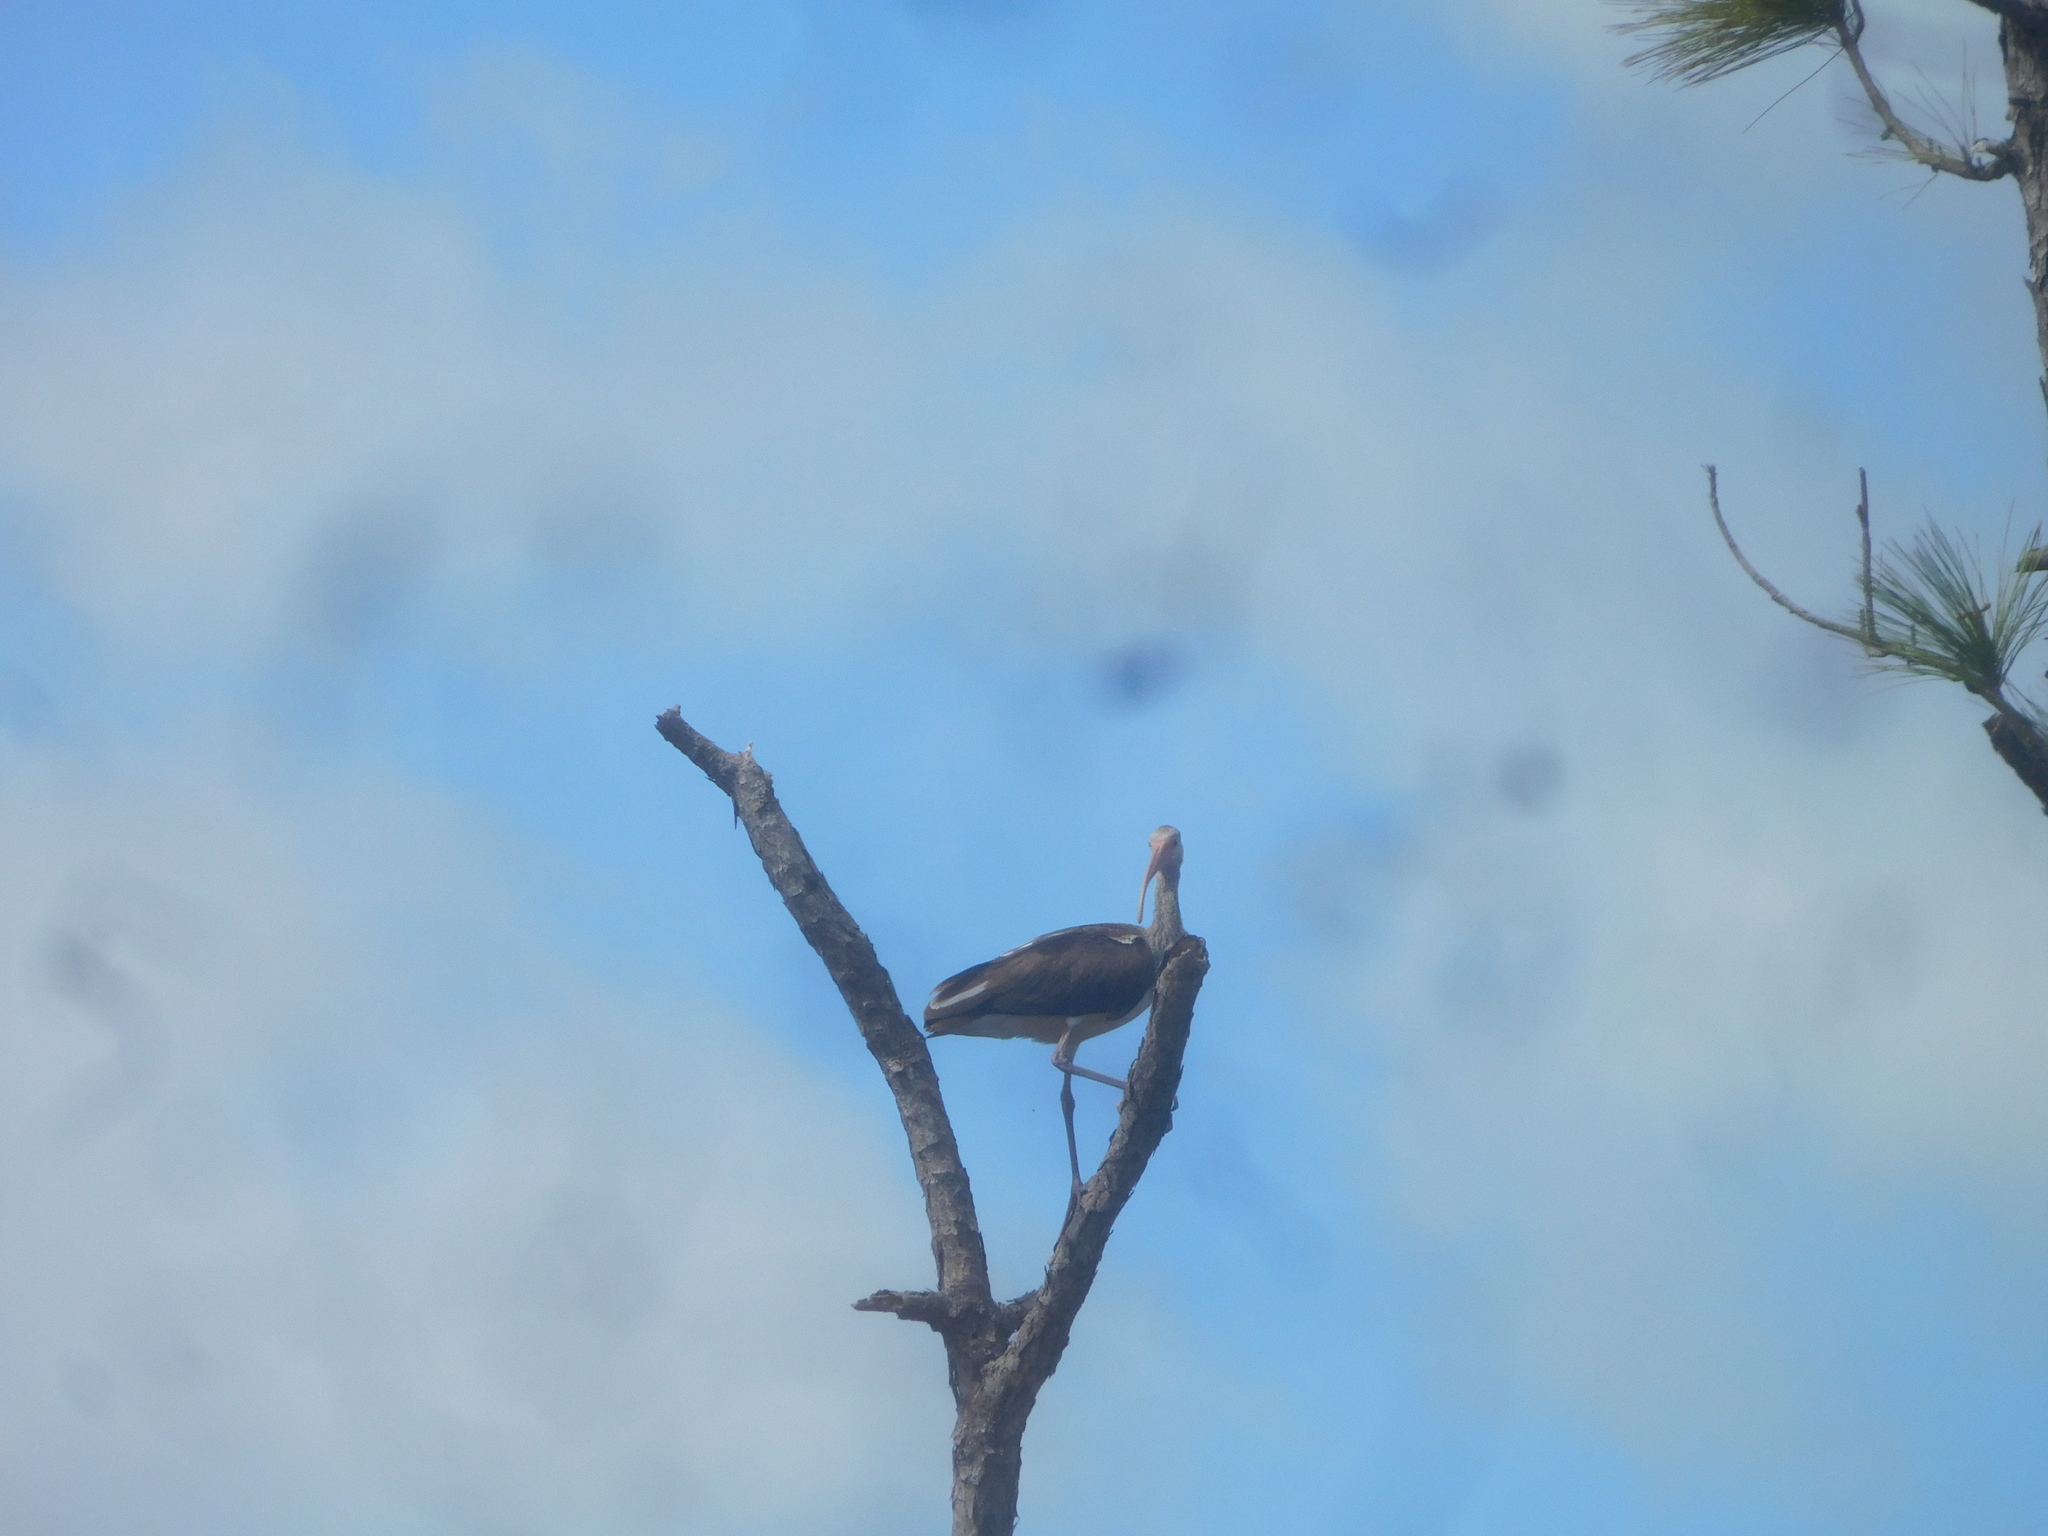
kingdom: Animalia
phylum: Chordata
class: Aves
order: Pelecaniformes
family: Threskiornithidae
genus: Eudocimus
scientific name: Eudocimus albus
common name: White ibis
